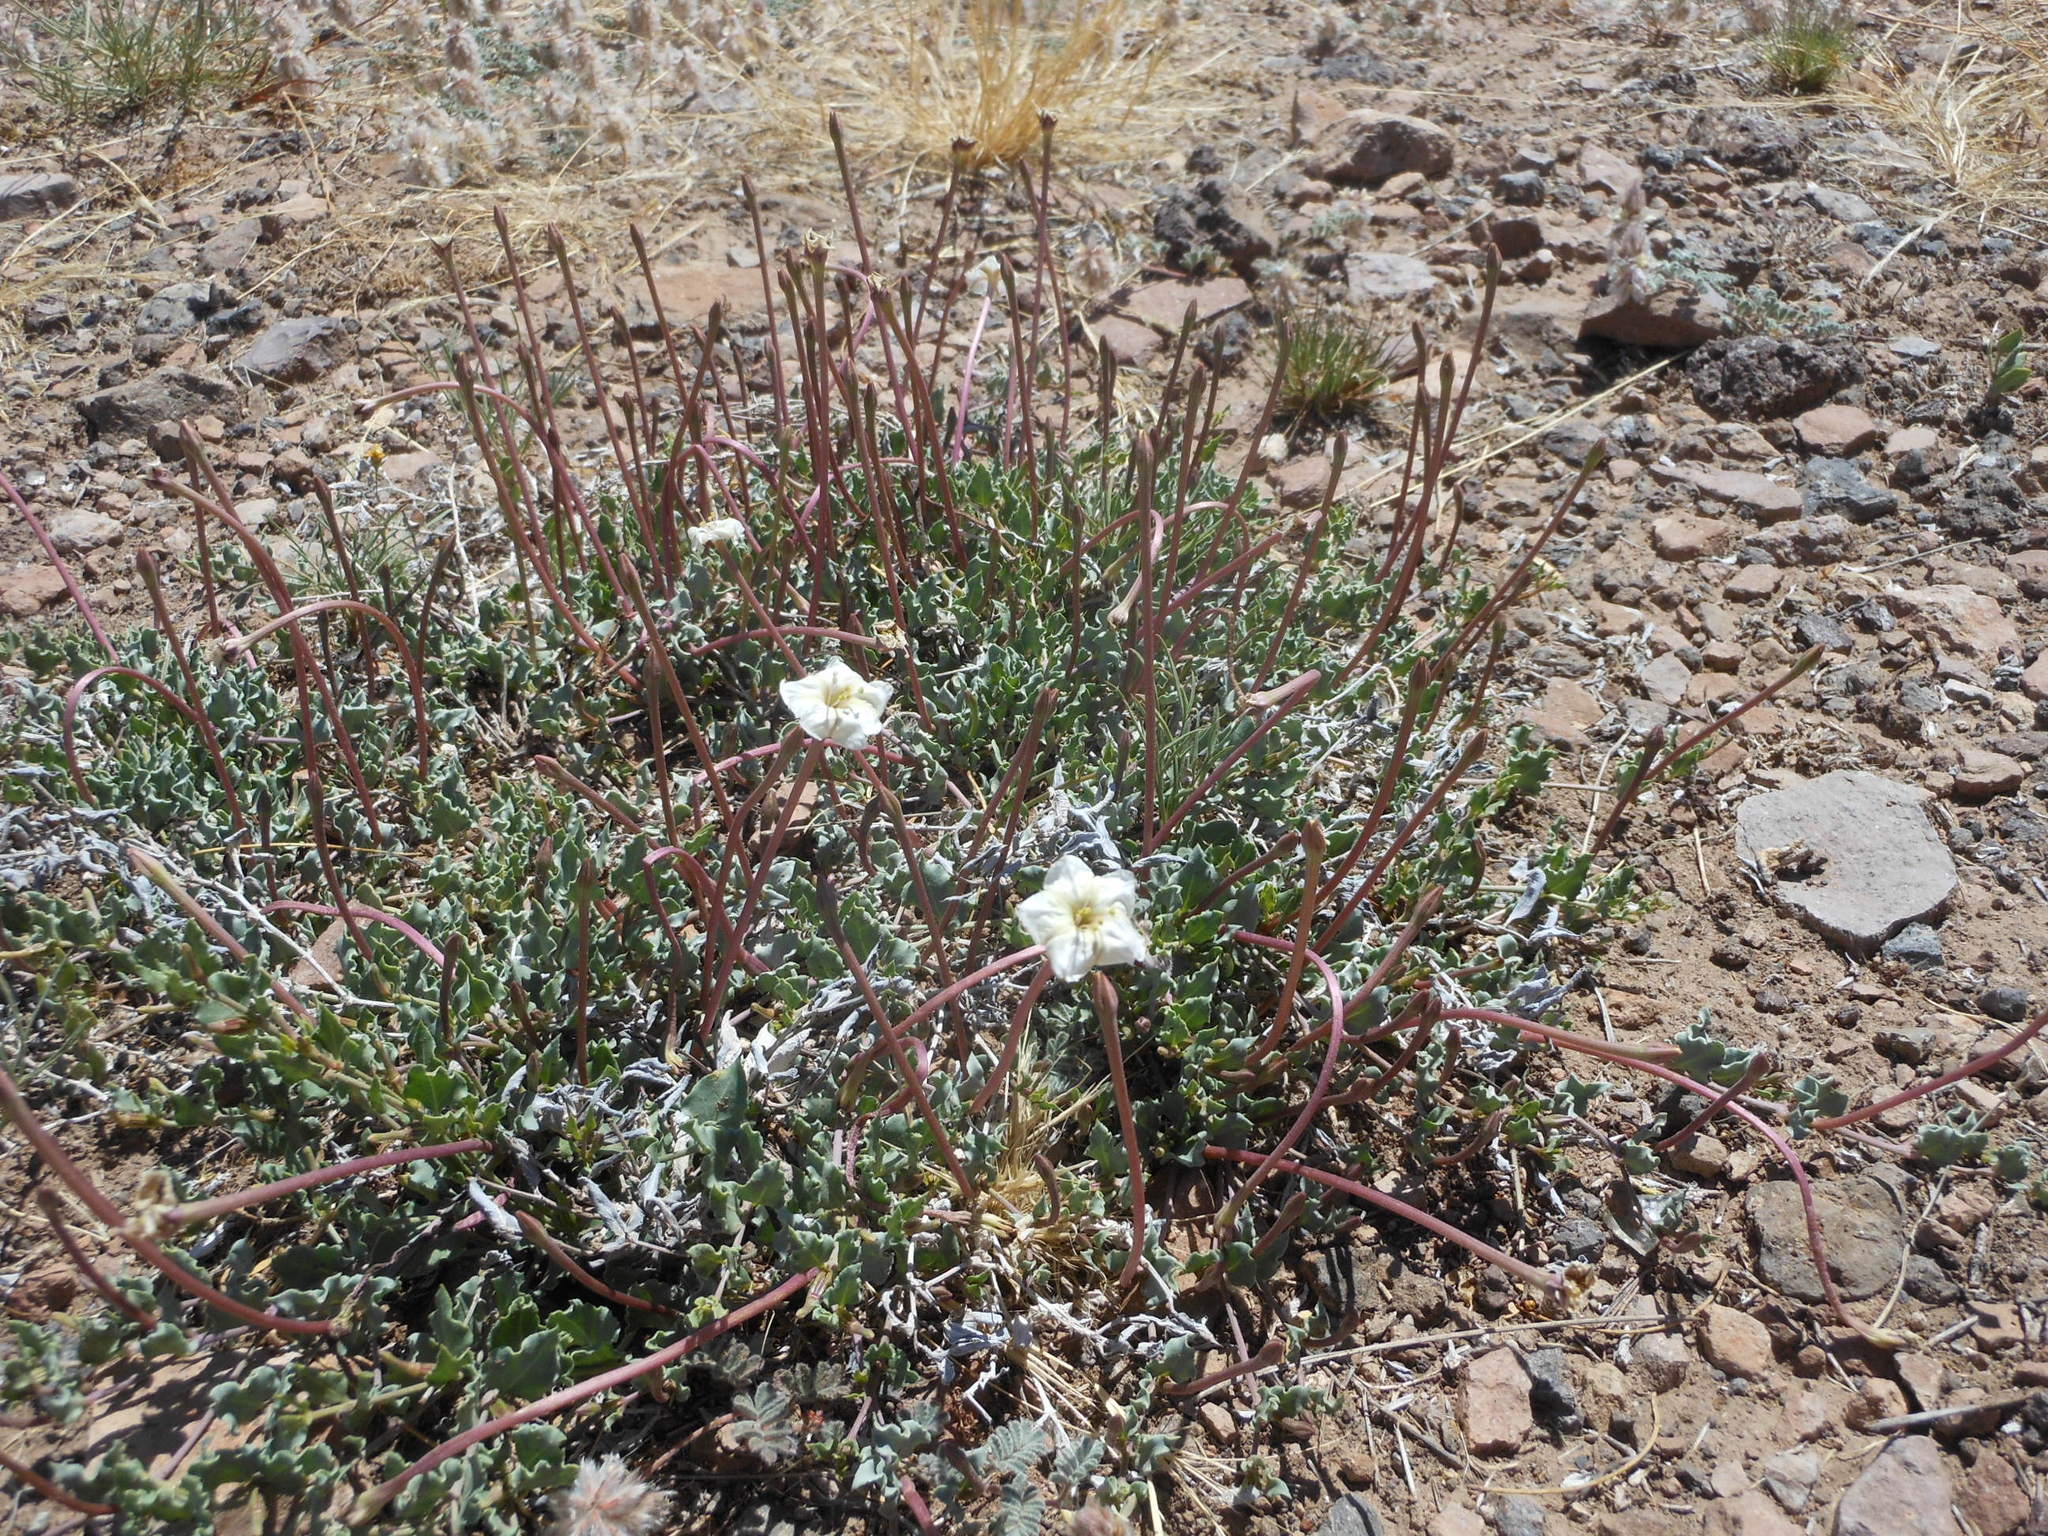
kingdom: Plantae
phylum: Tracheophyta
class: Magnoliopsida
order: Caryophyllales
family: Nyctaginaceae
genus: Acleisanthes
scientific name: Acleisanthes longiflora
